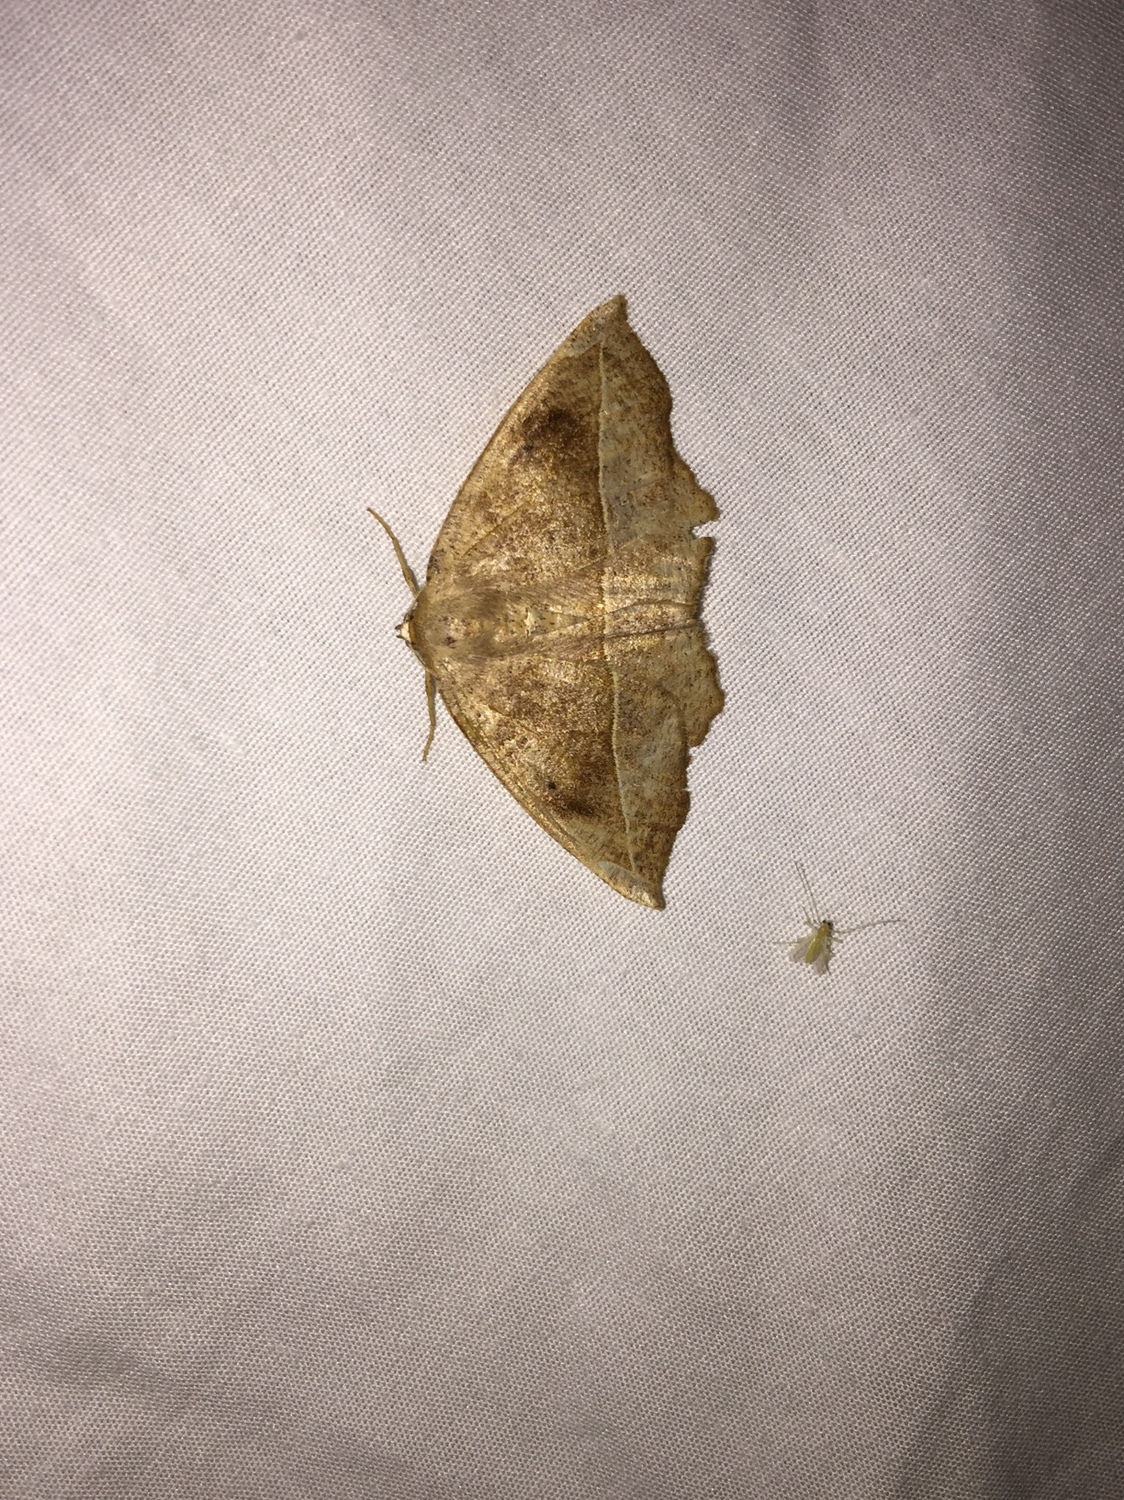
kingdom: Animalia
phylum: Arthropoda
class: Insecta
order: Lepidoptera
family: Geometridae
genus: Eutrapela
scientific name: Eutrapela clemataria
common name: Curved-toothed geometer
